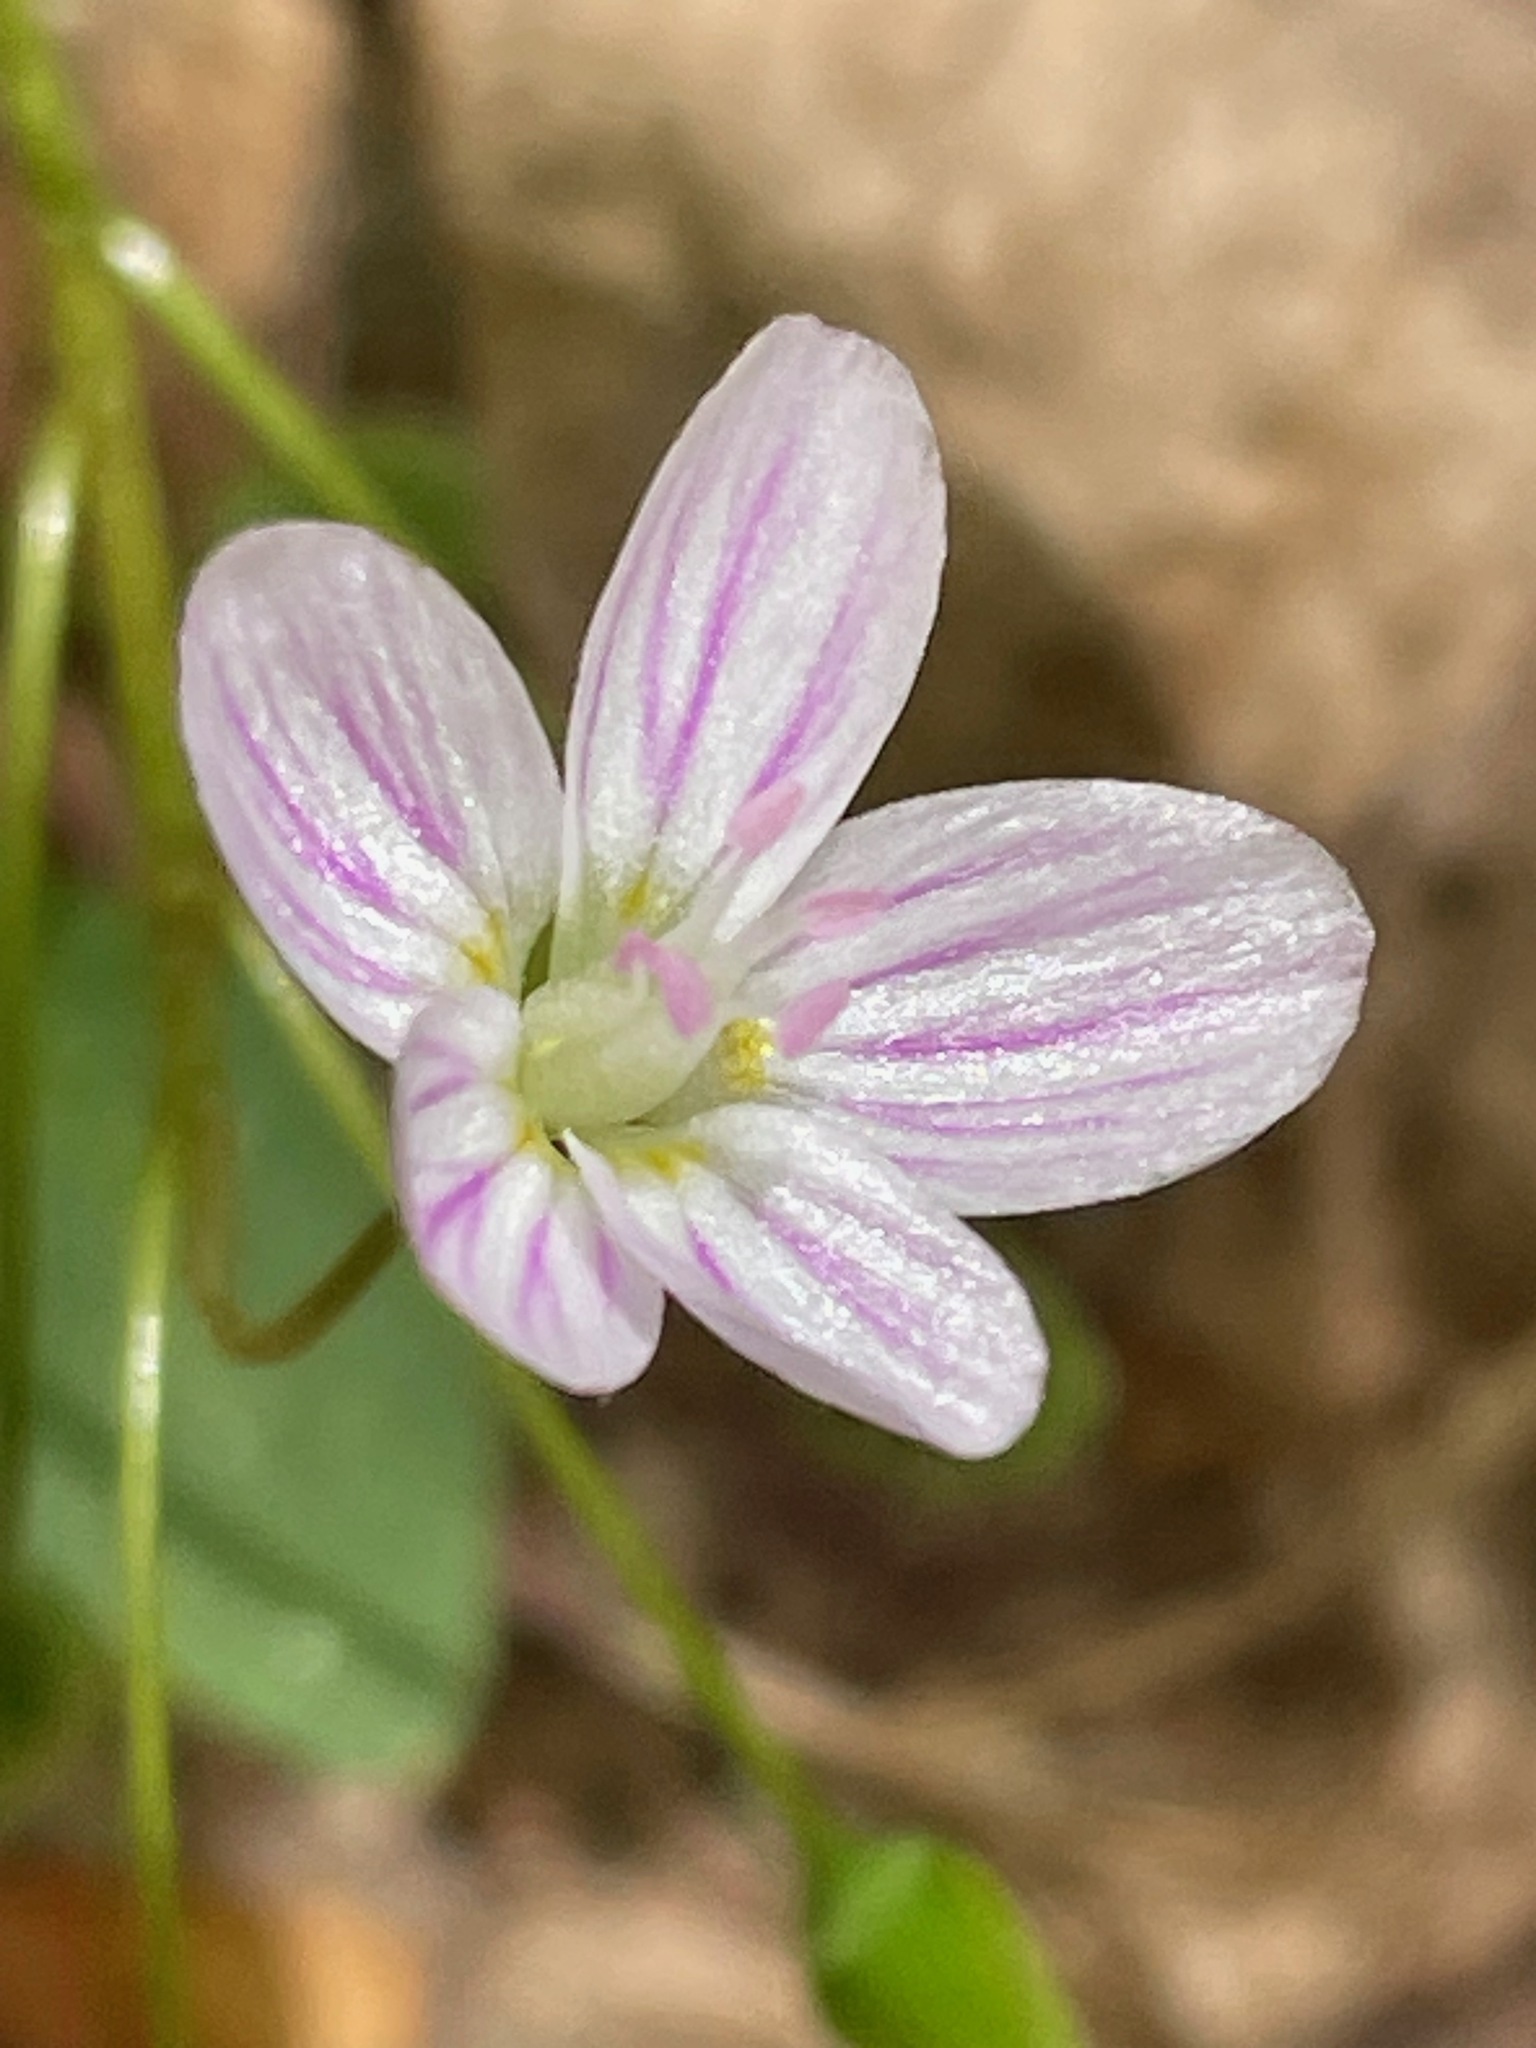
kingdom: Plantae
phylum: Tracheophyta
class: Magnoliopsida
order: Caryophyllales
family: Montiaceae
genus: Claytonia
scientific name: Claytonia caroliniana
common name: Carolina spring beauty
